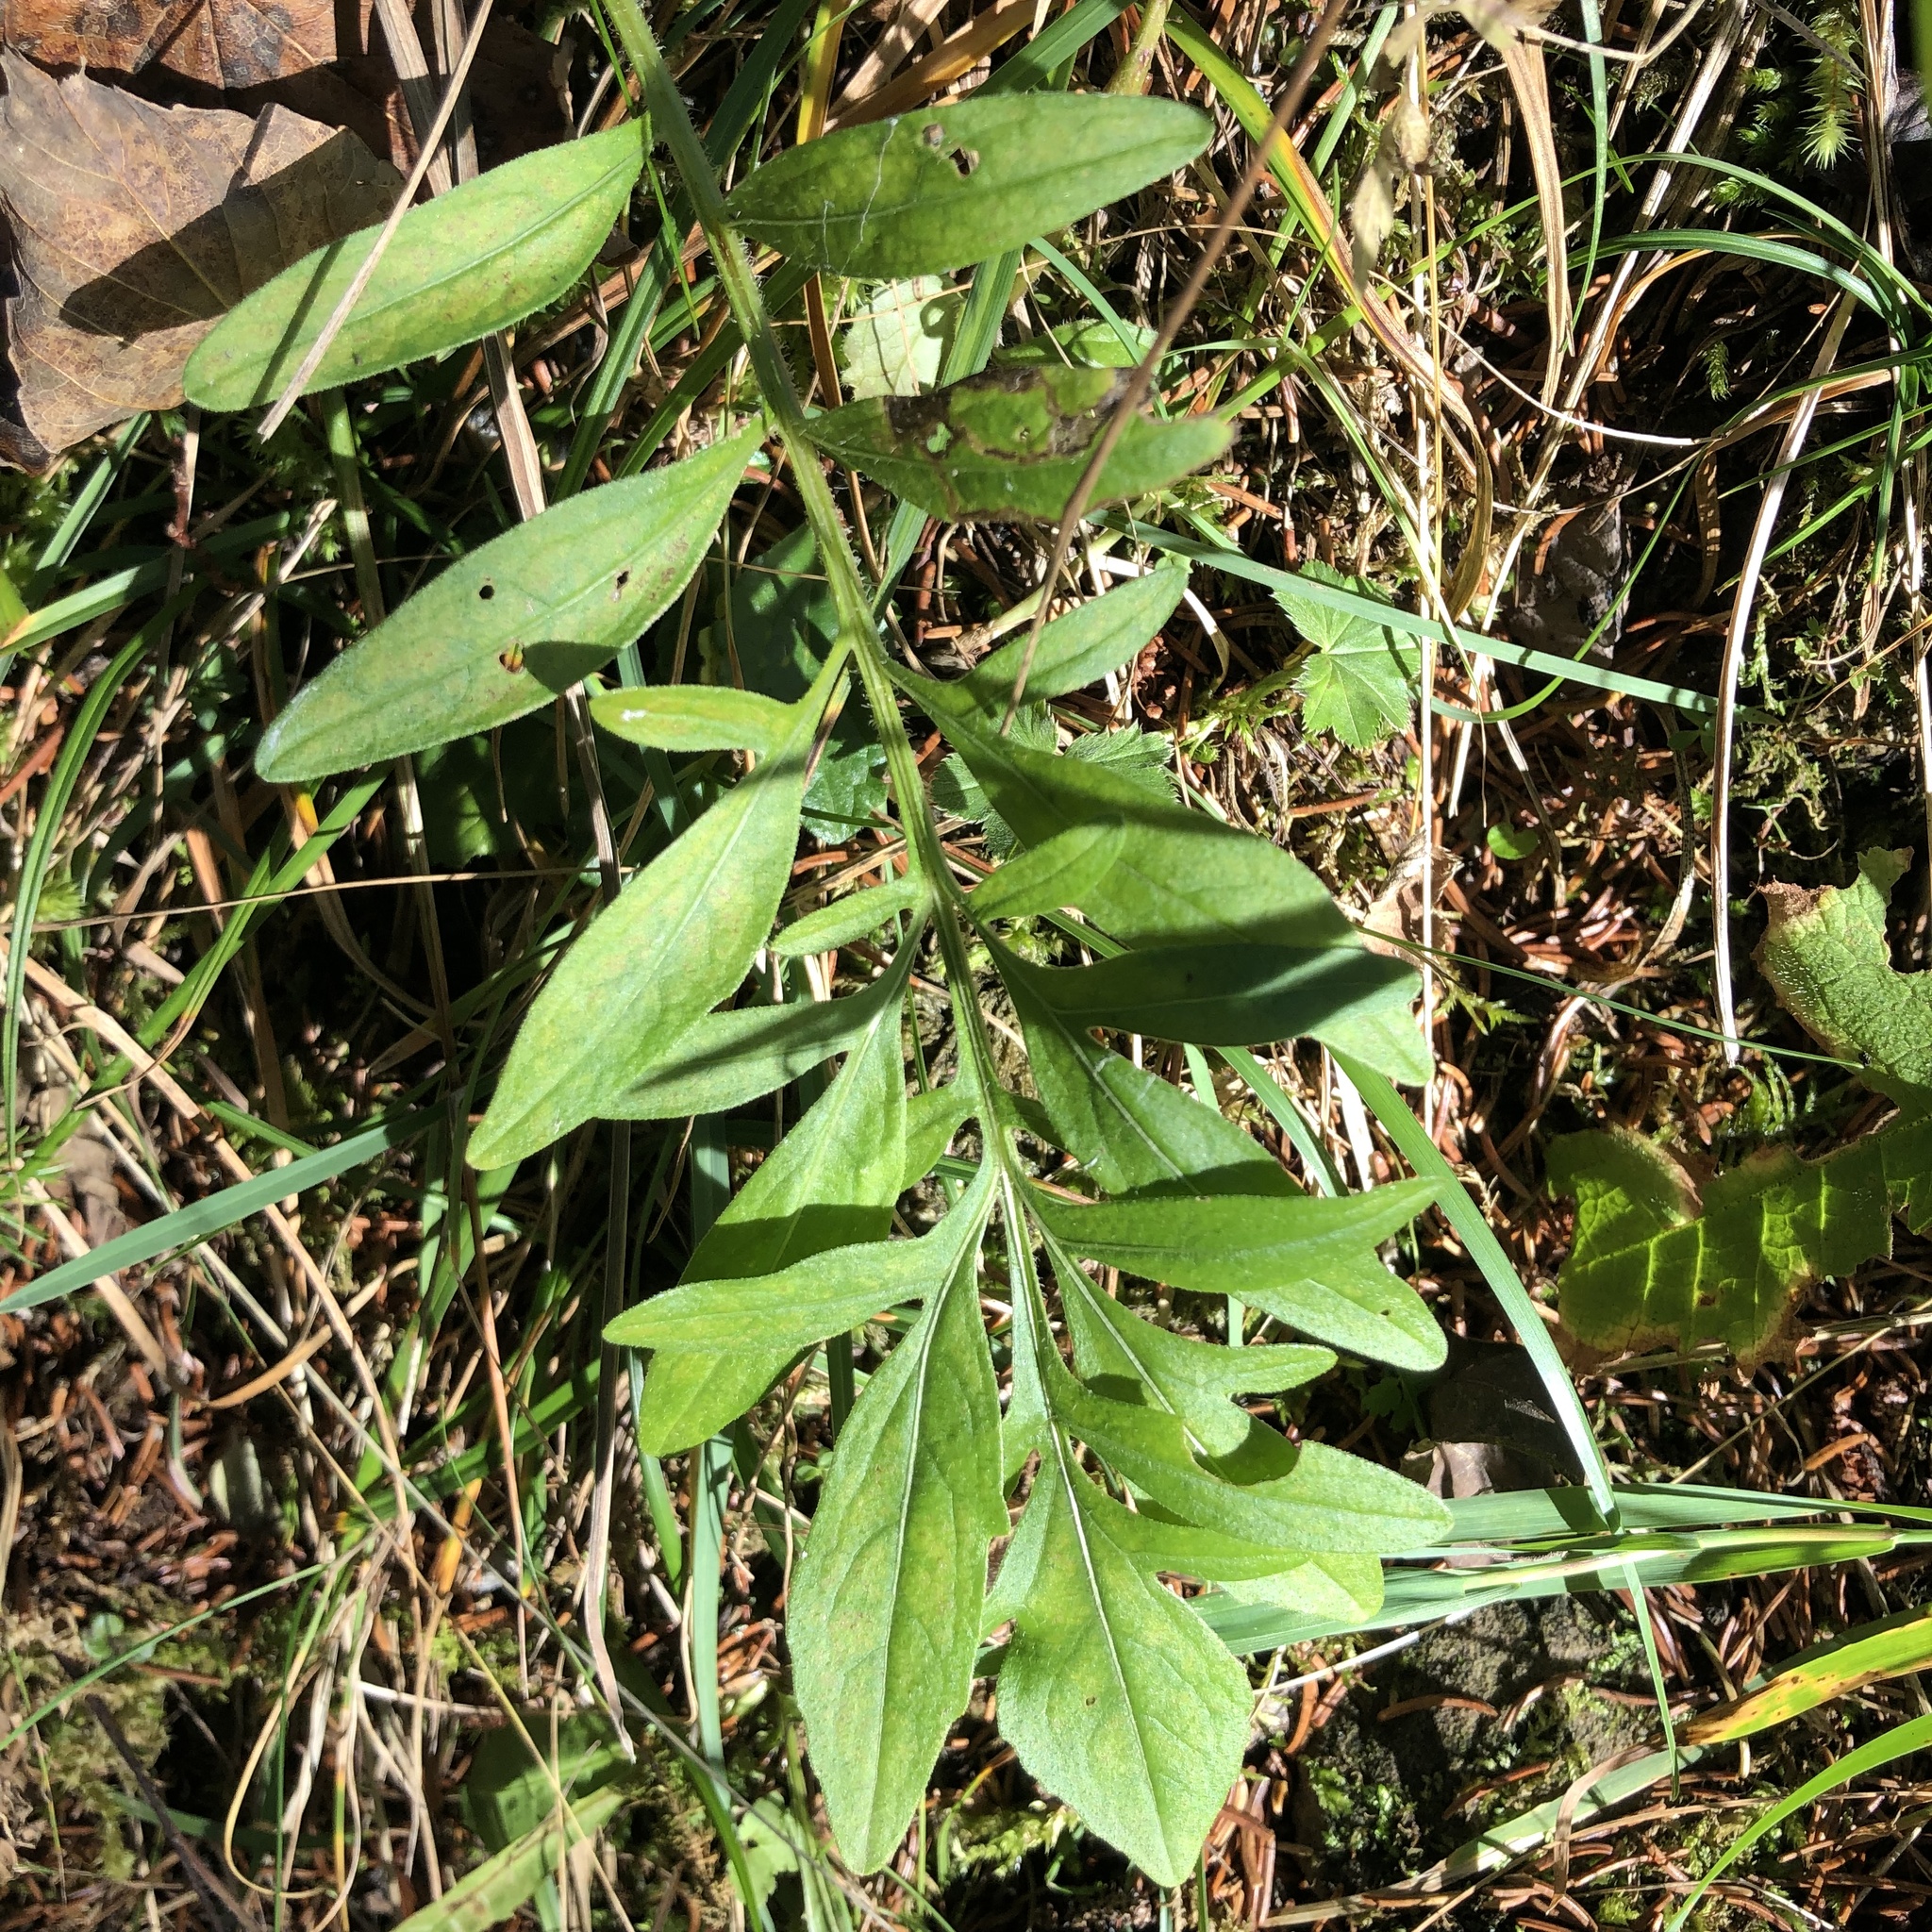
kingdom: Plantae
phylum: Tracheophyta
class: Magnoliopsida
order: Asterales
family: Asteraceae
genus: Centaurea
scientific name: Centaurea scabiosa
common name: Greater knapweed
